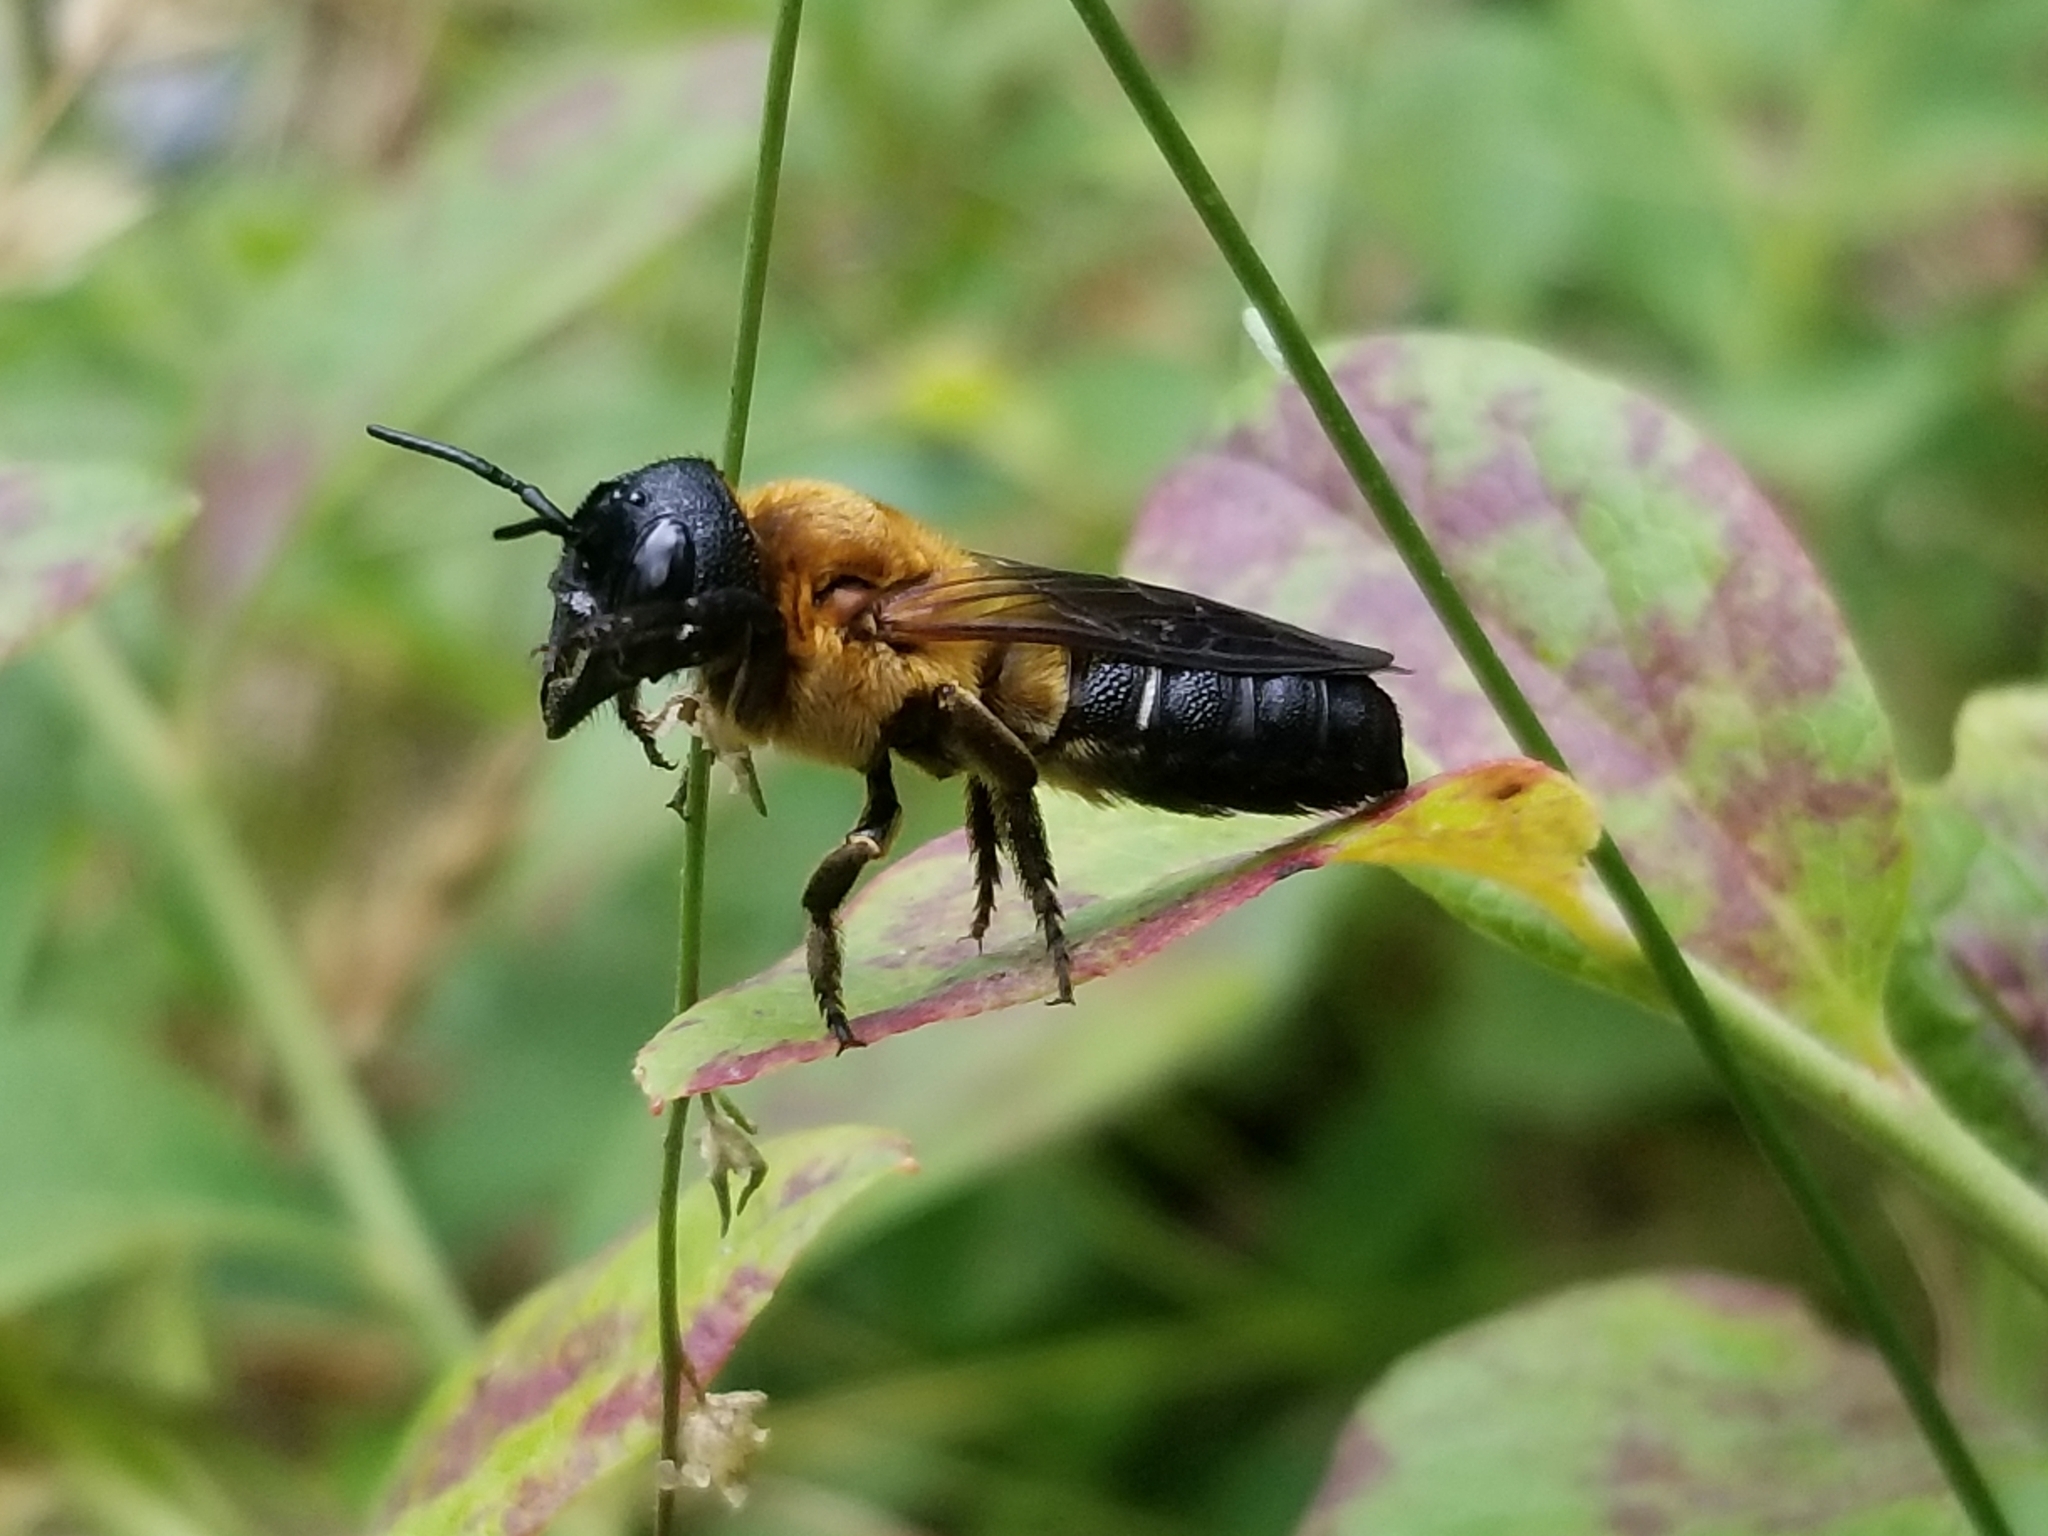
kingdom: Animalia
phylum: Arthropoda
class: Insecta
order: Hymenoptera
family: Megachilidae
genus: Megachile
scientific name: Megachile sculpturalis
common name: Sculptured resin bee
